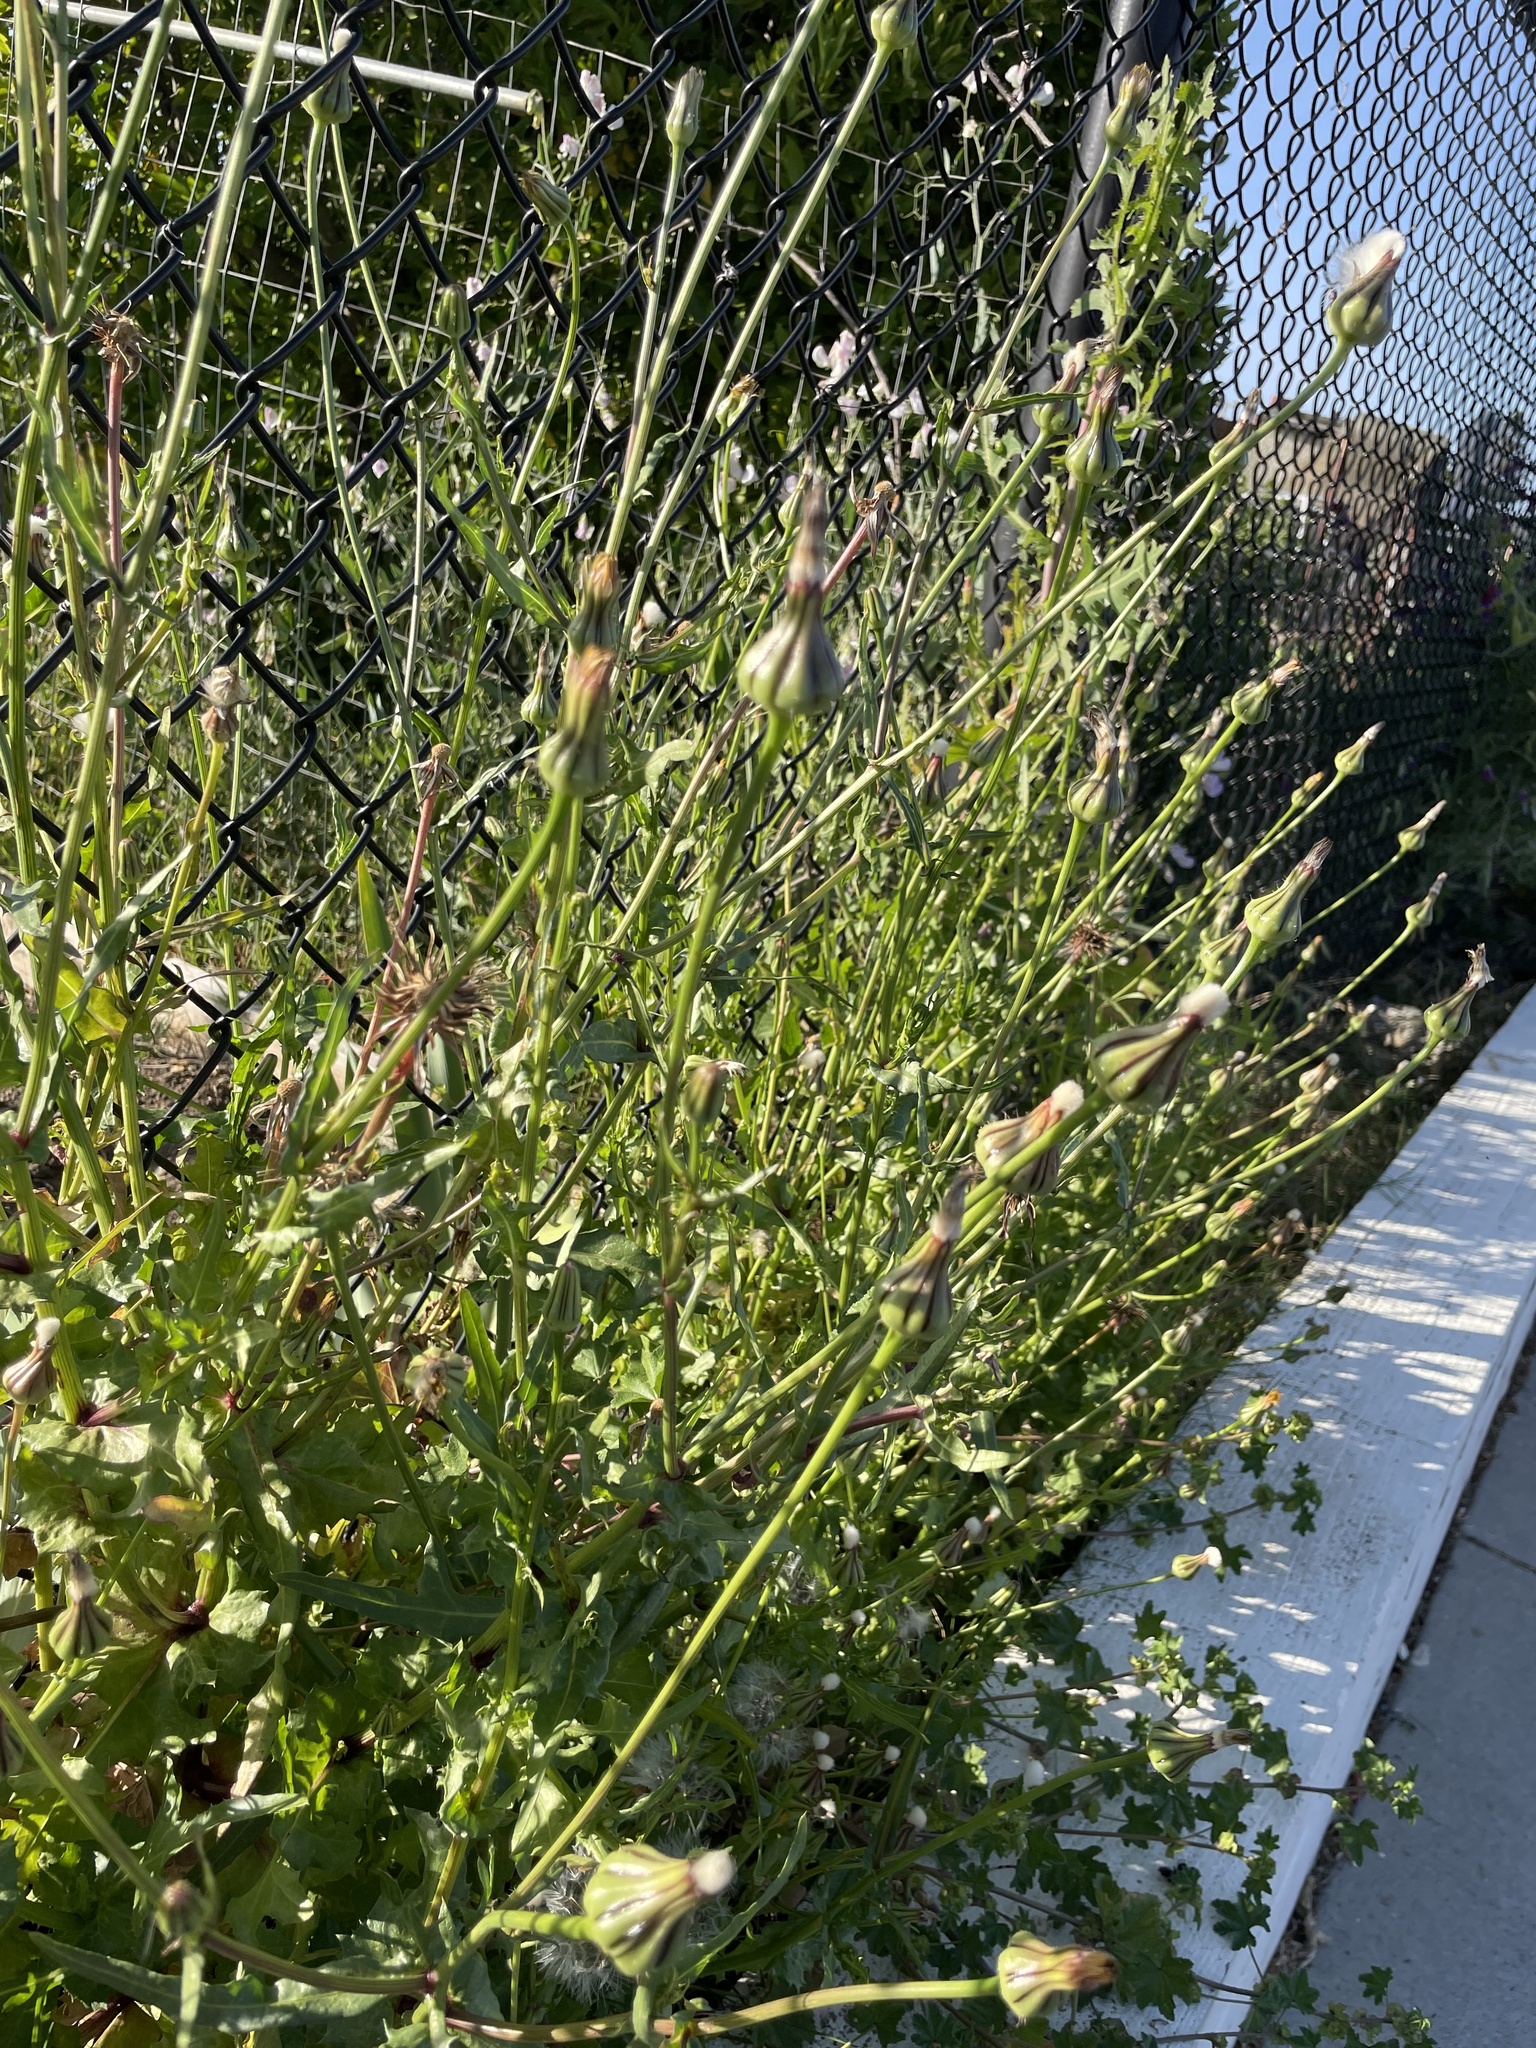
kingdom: Plantae
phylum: Tracheophyta
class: Magnoliopsida
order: Asterales
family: Asteraceae
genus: Urospermum
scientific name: Urospermum picroides
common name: False hawkbit
